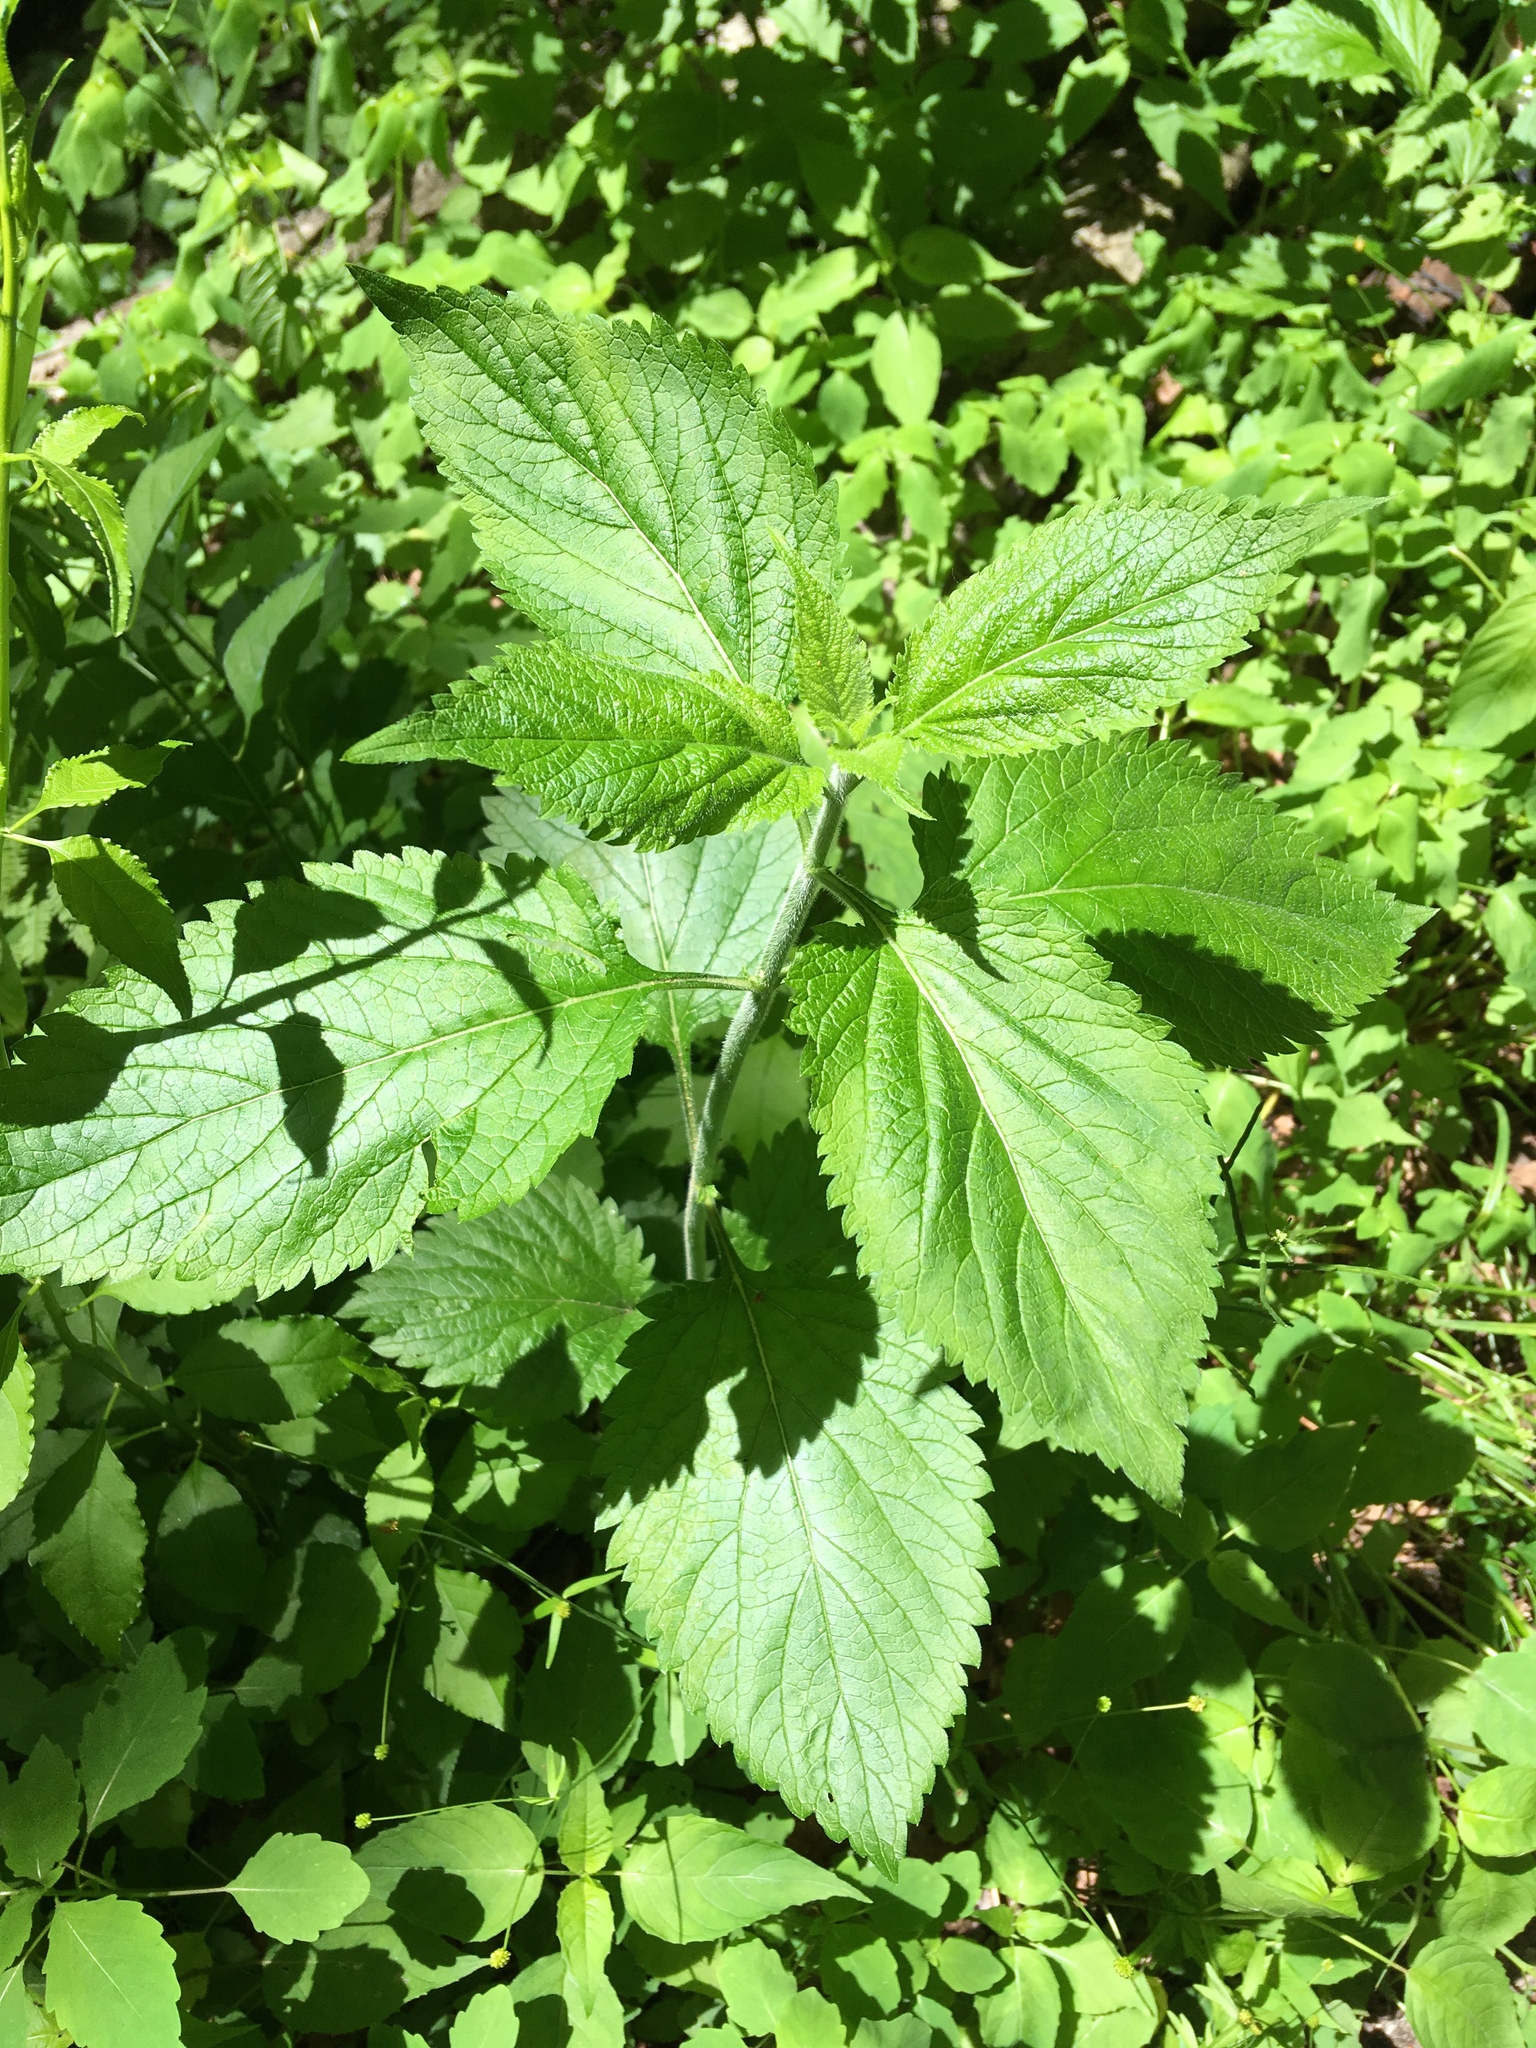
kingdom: Plantae
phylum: Tracheophyta
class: Magnoliopsida
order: Lamiales
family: Verbenaceae
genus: Verbena
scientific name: Verbena urticifolia
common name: Nettle-leaved vervain
